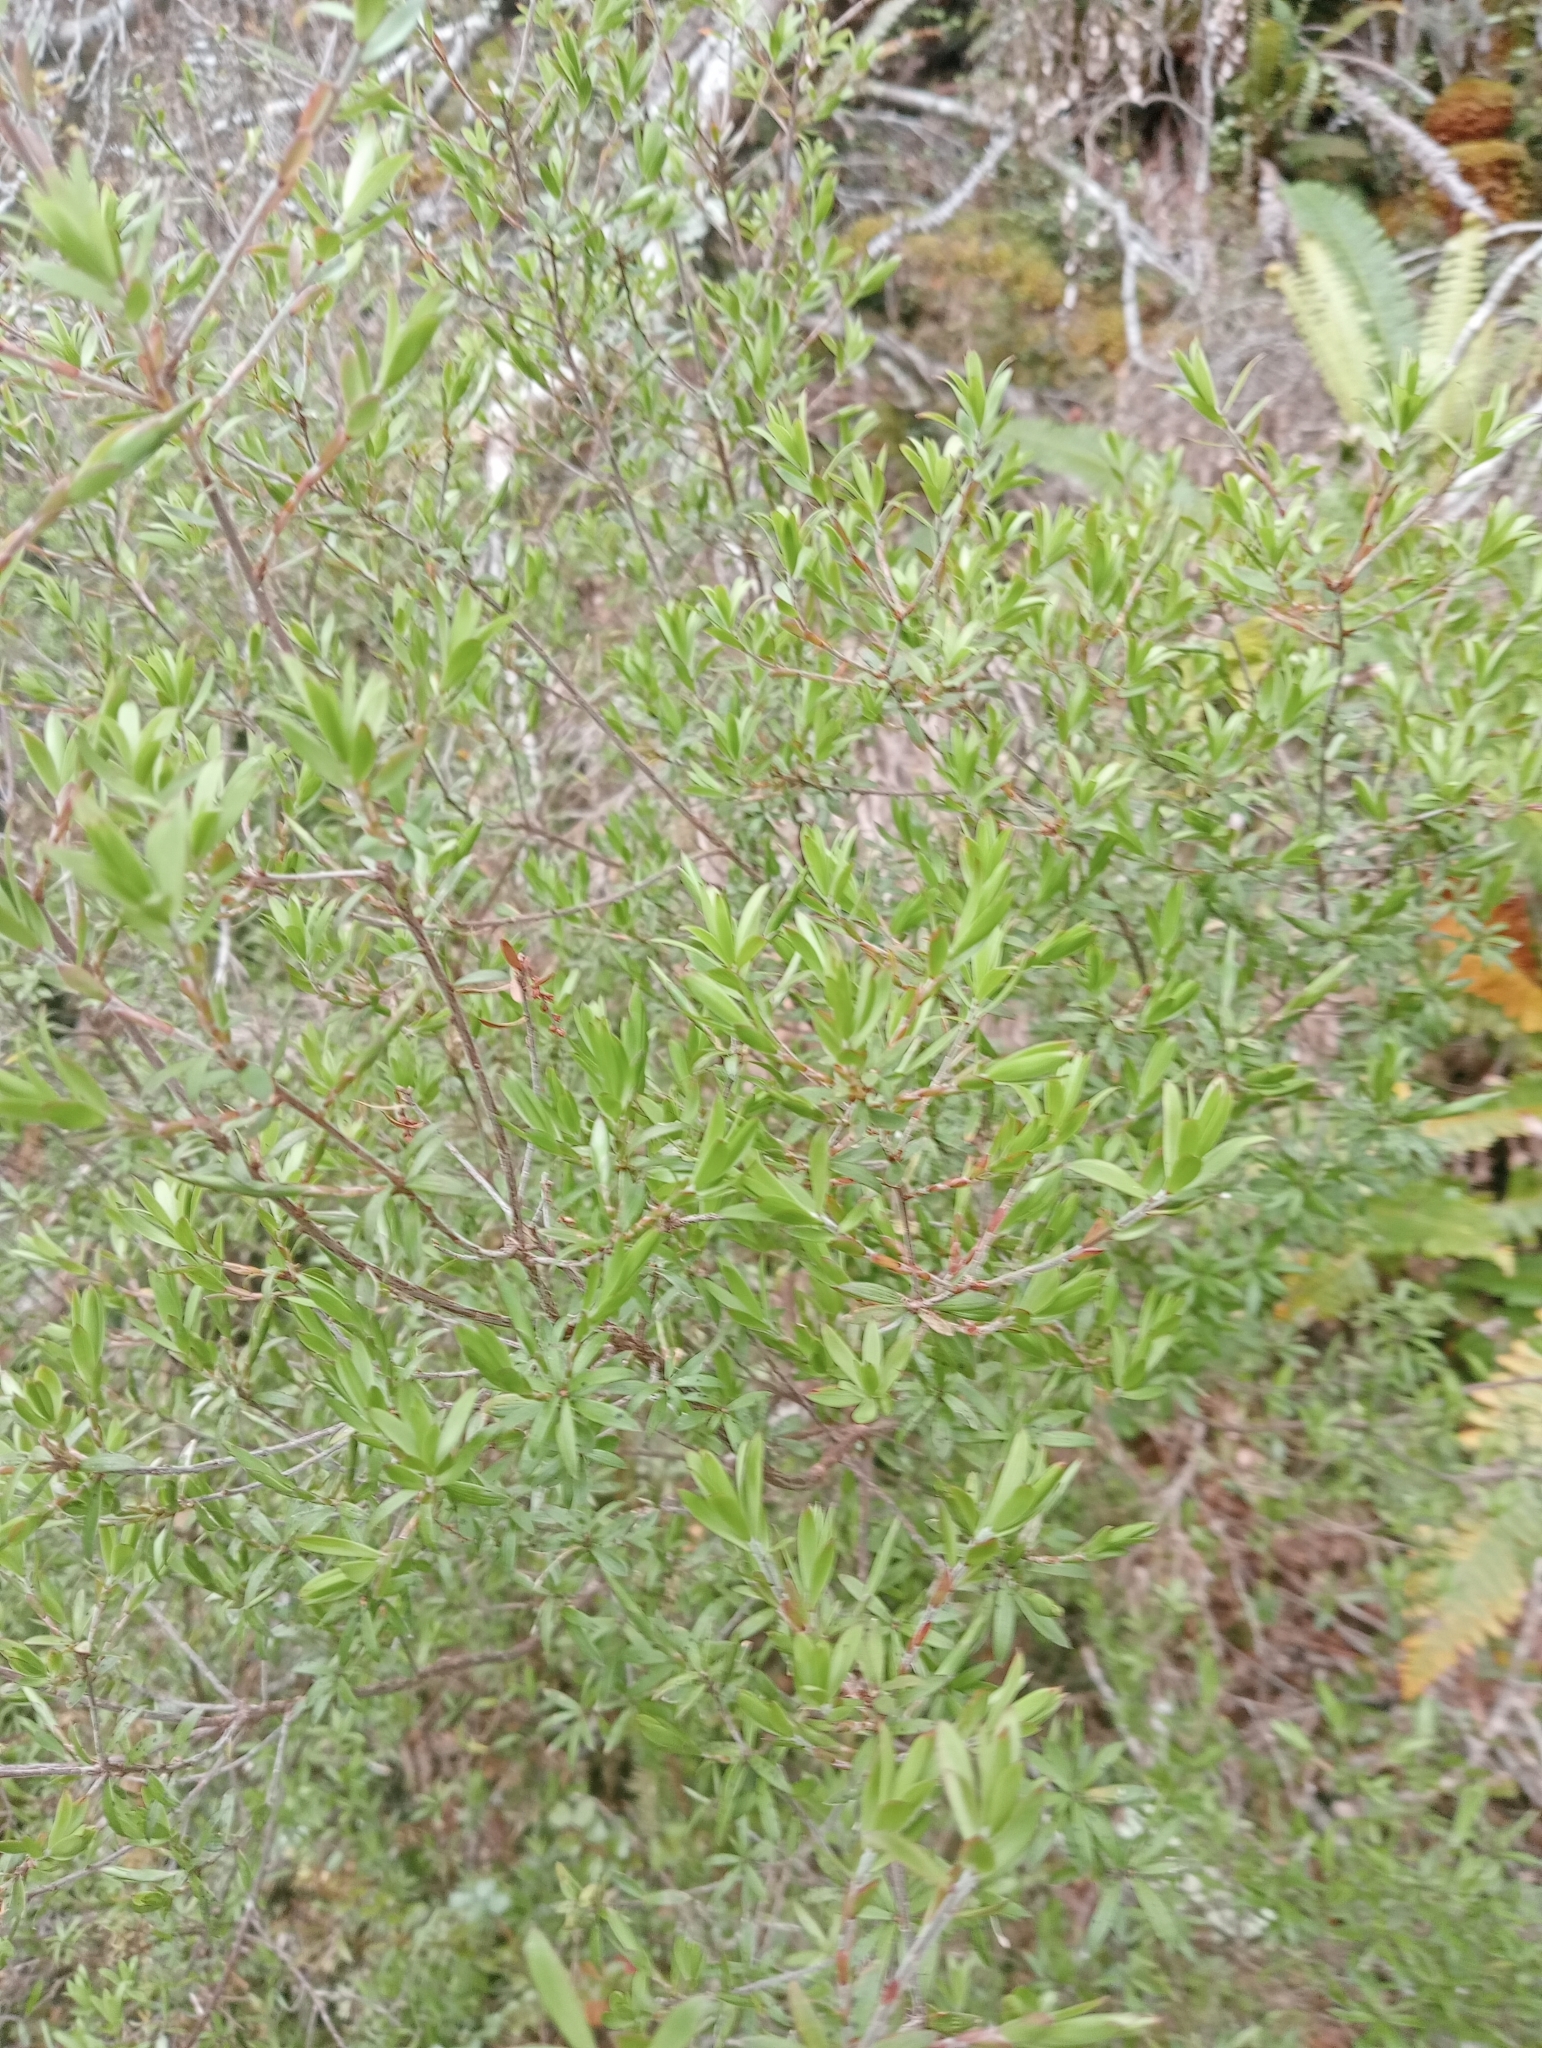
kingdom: Plantae
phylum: Tracheophyta
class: Magnoliopsida
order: Ericales
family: Ericaceae
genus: Leucopogon
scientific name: Leucopogon fasciculatus
